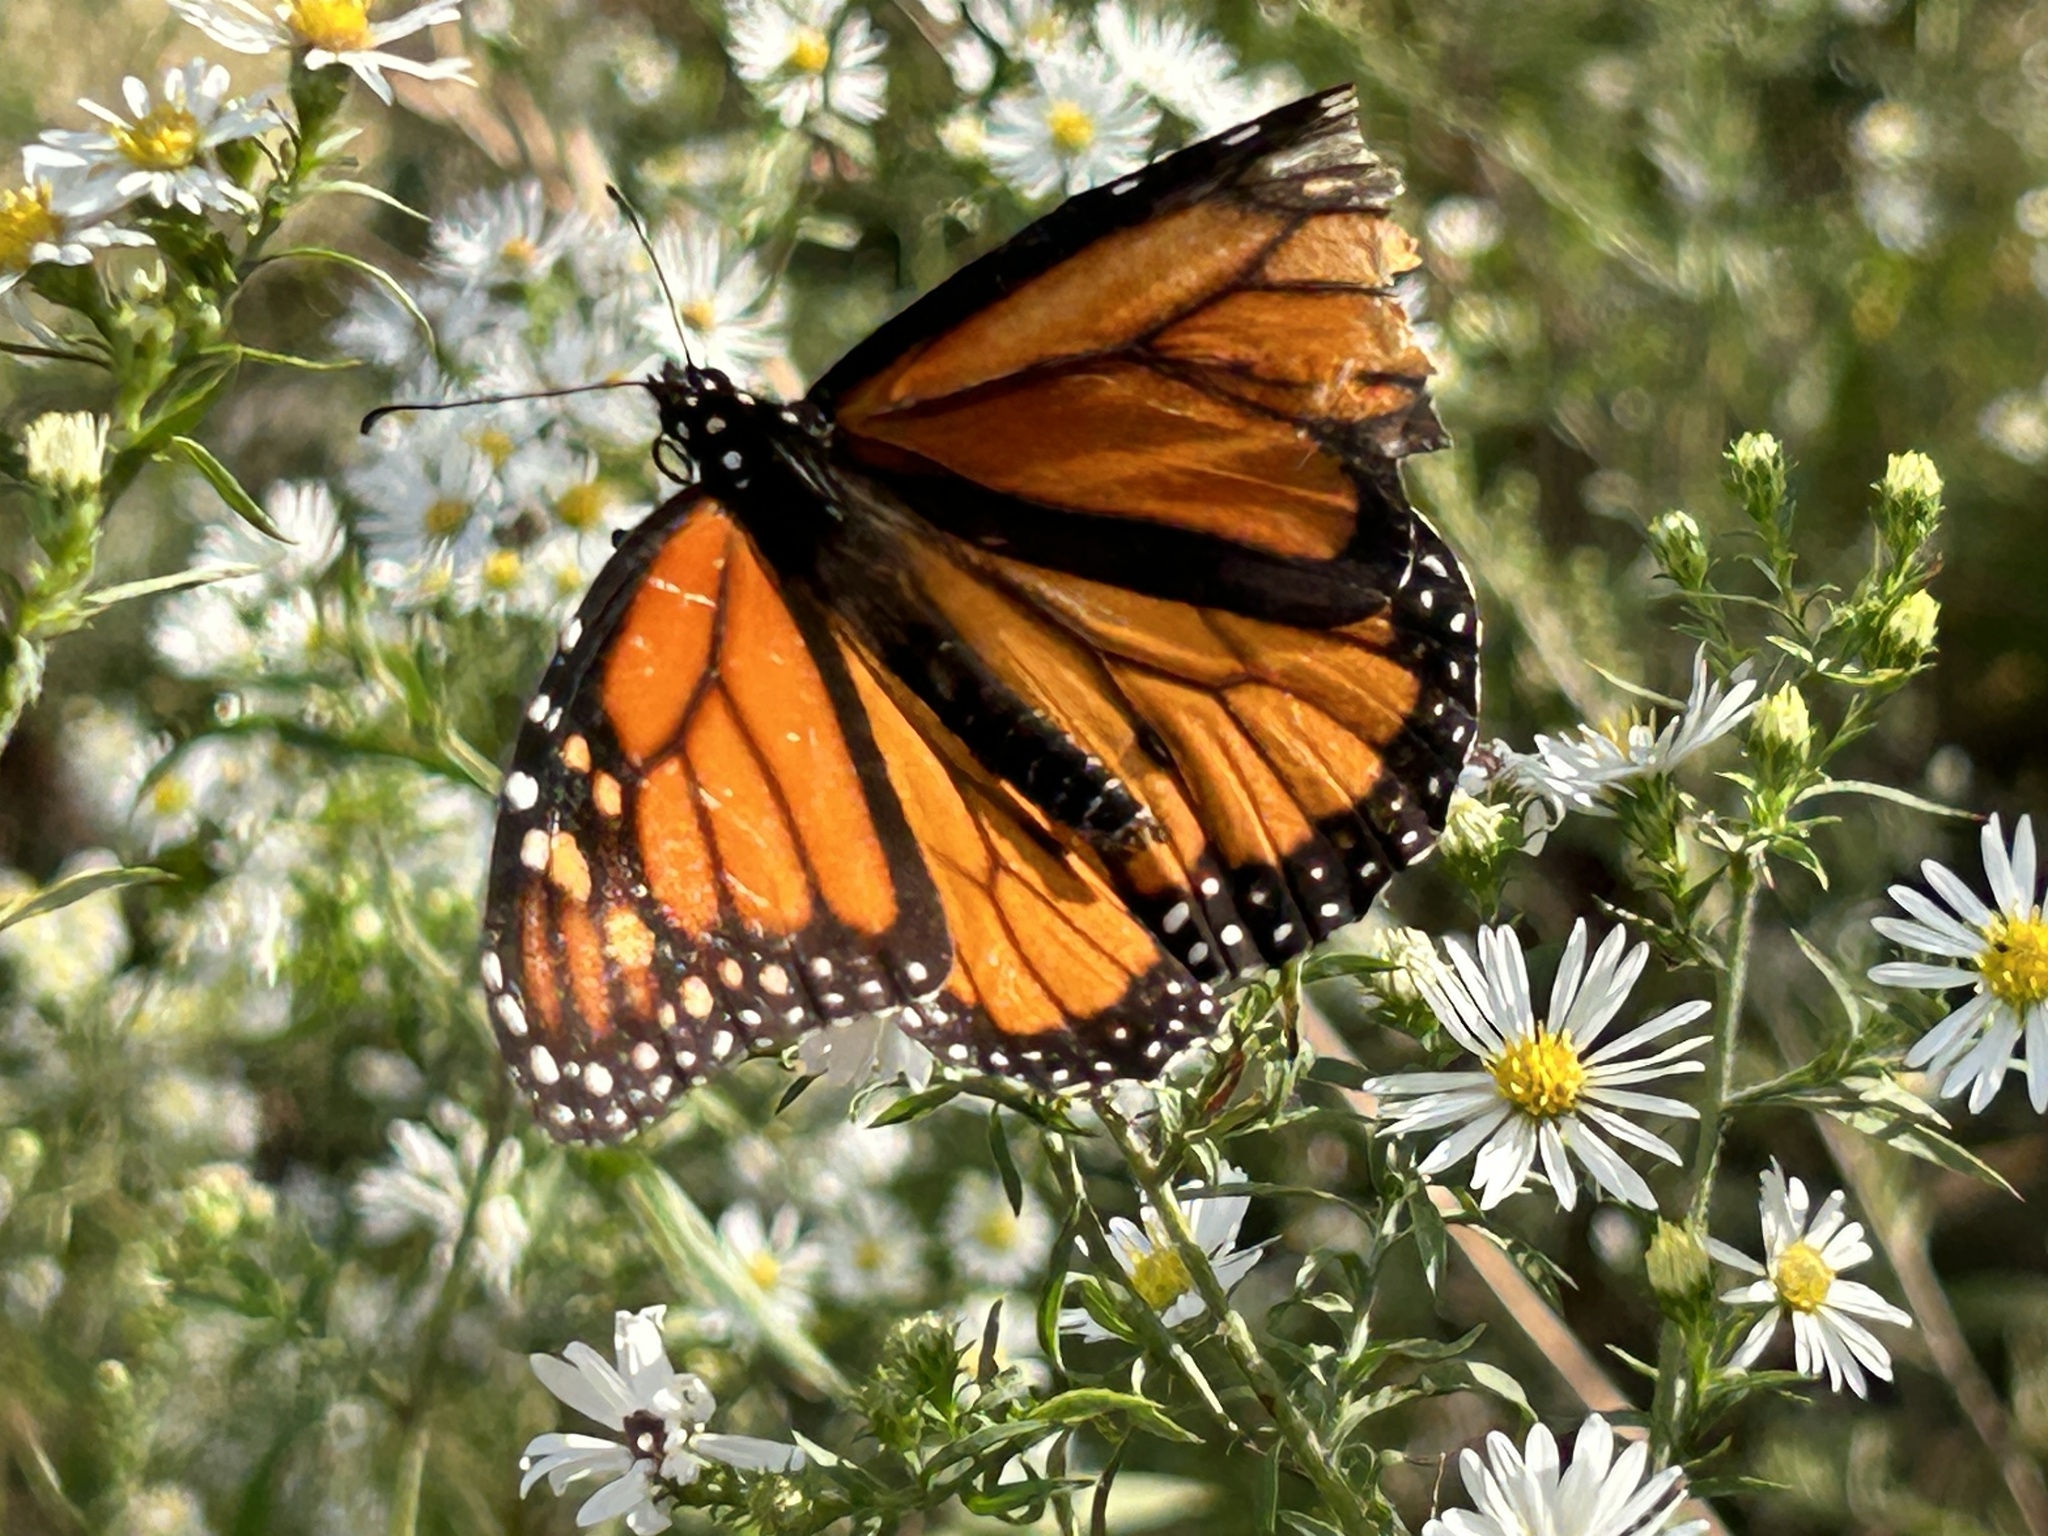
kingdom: Animalia
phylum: Arthropoda
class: Insecta
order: Lepidoptera
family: Nymphalidae
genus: Danaus
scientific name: Danaus plexippus
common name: Monarch
